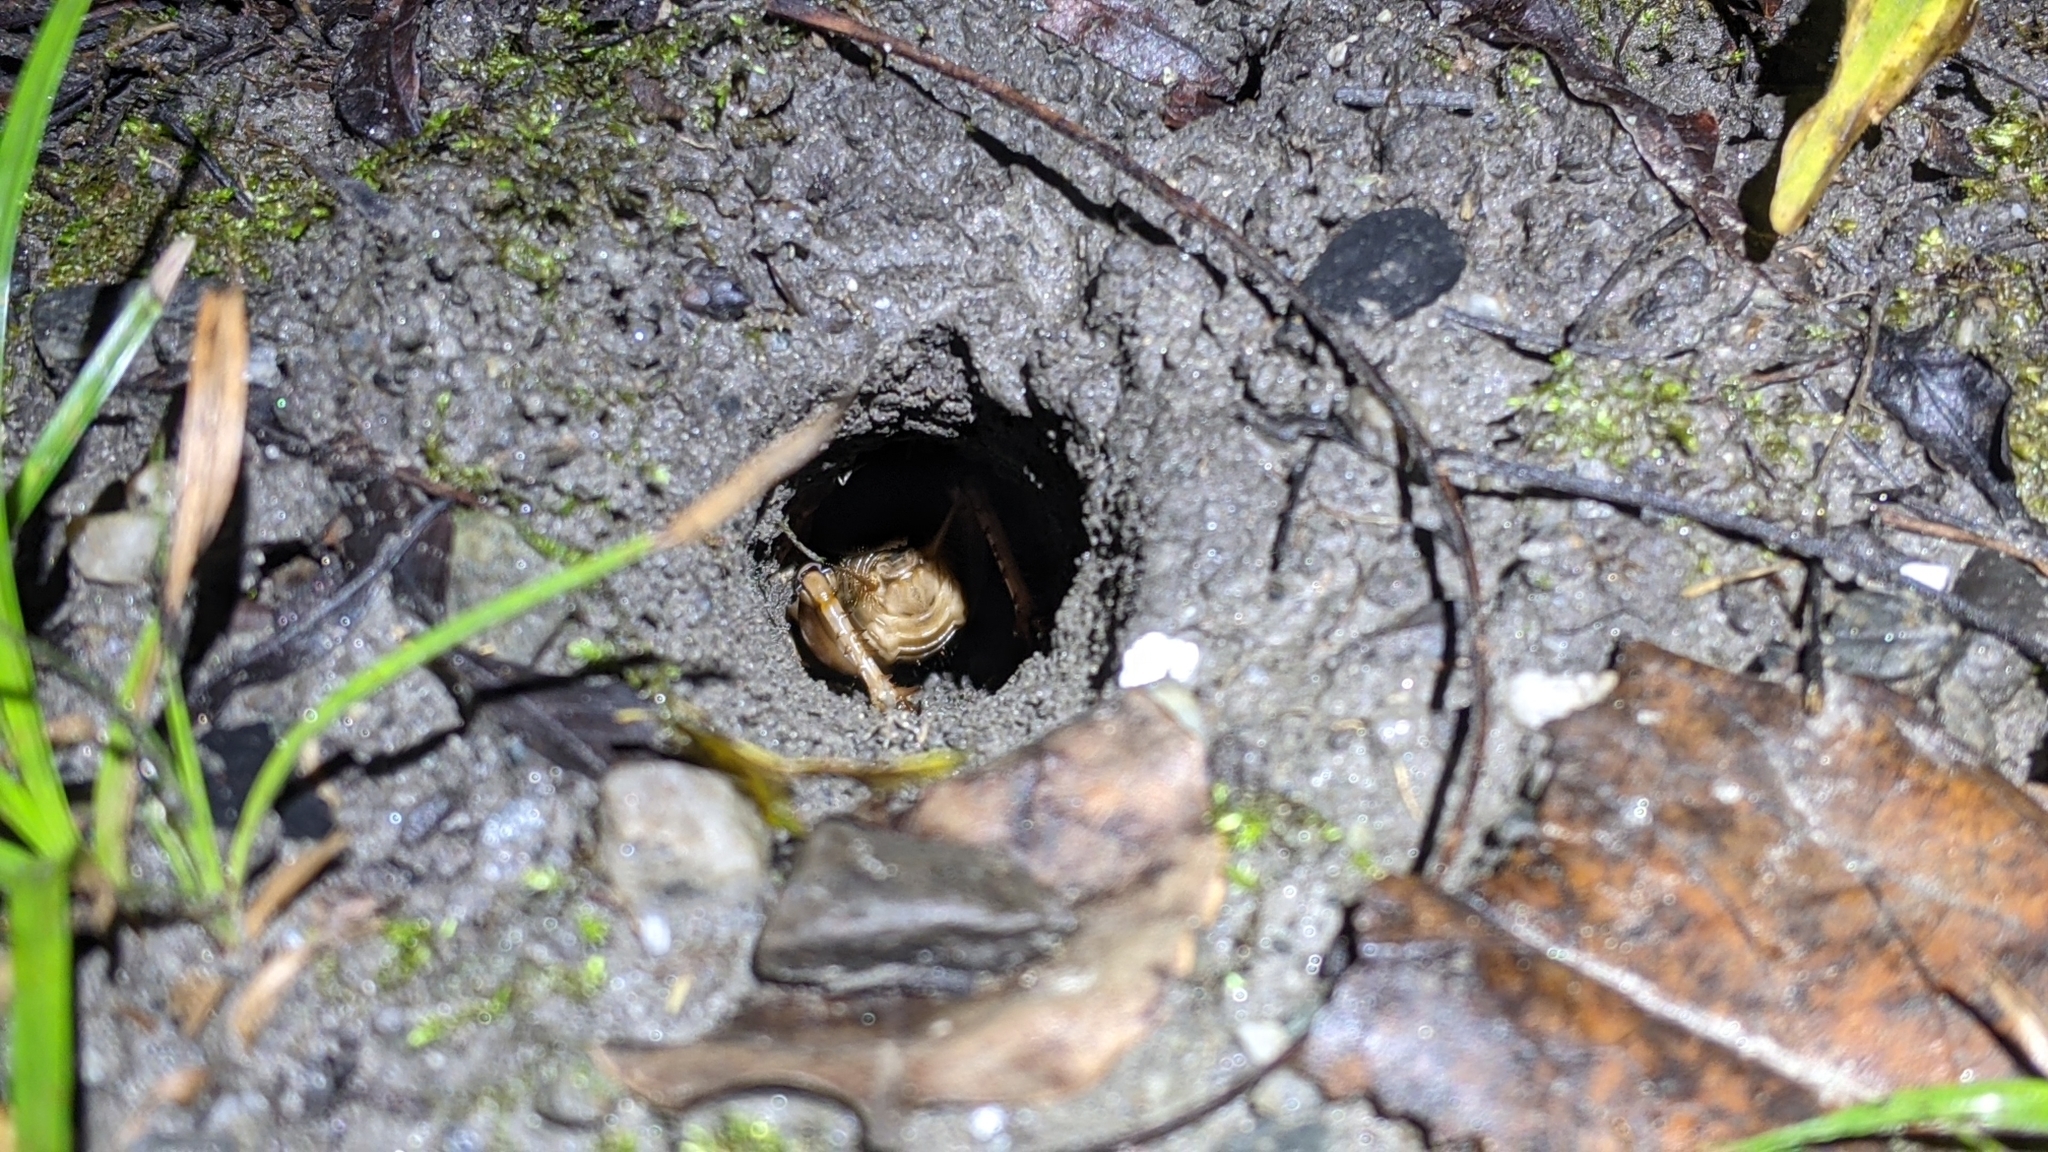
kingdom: Animalia
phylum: Arthropoda
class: Insecta
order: Orthoptera
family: Gryllidae
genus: Tarbinskiellus
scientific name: Tarbinskiellus portentosus
